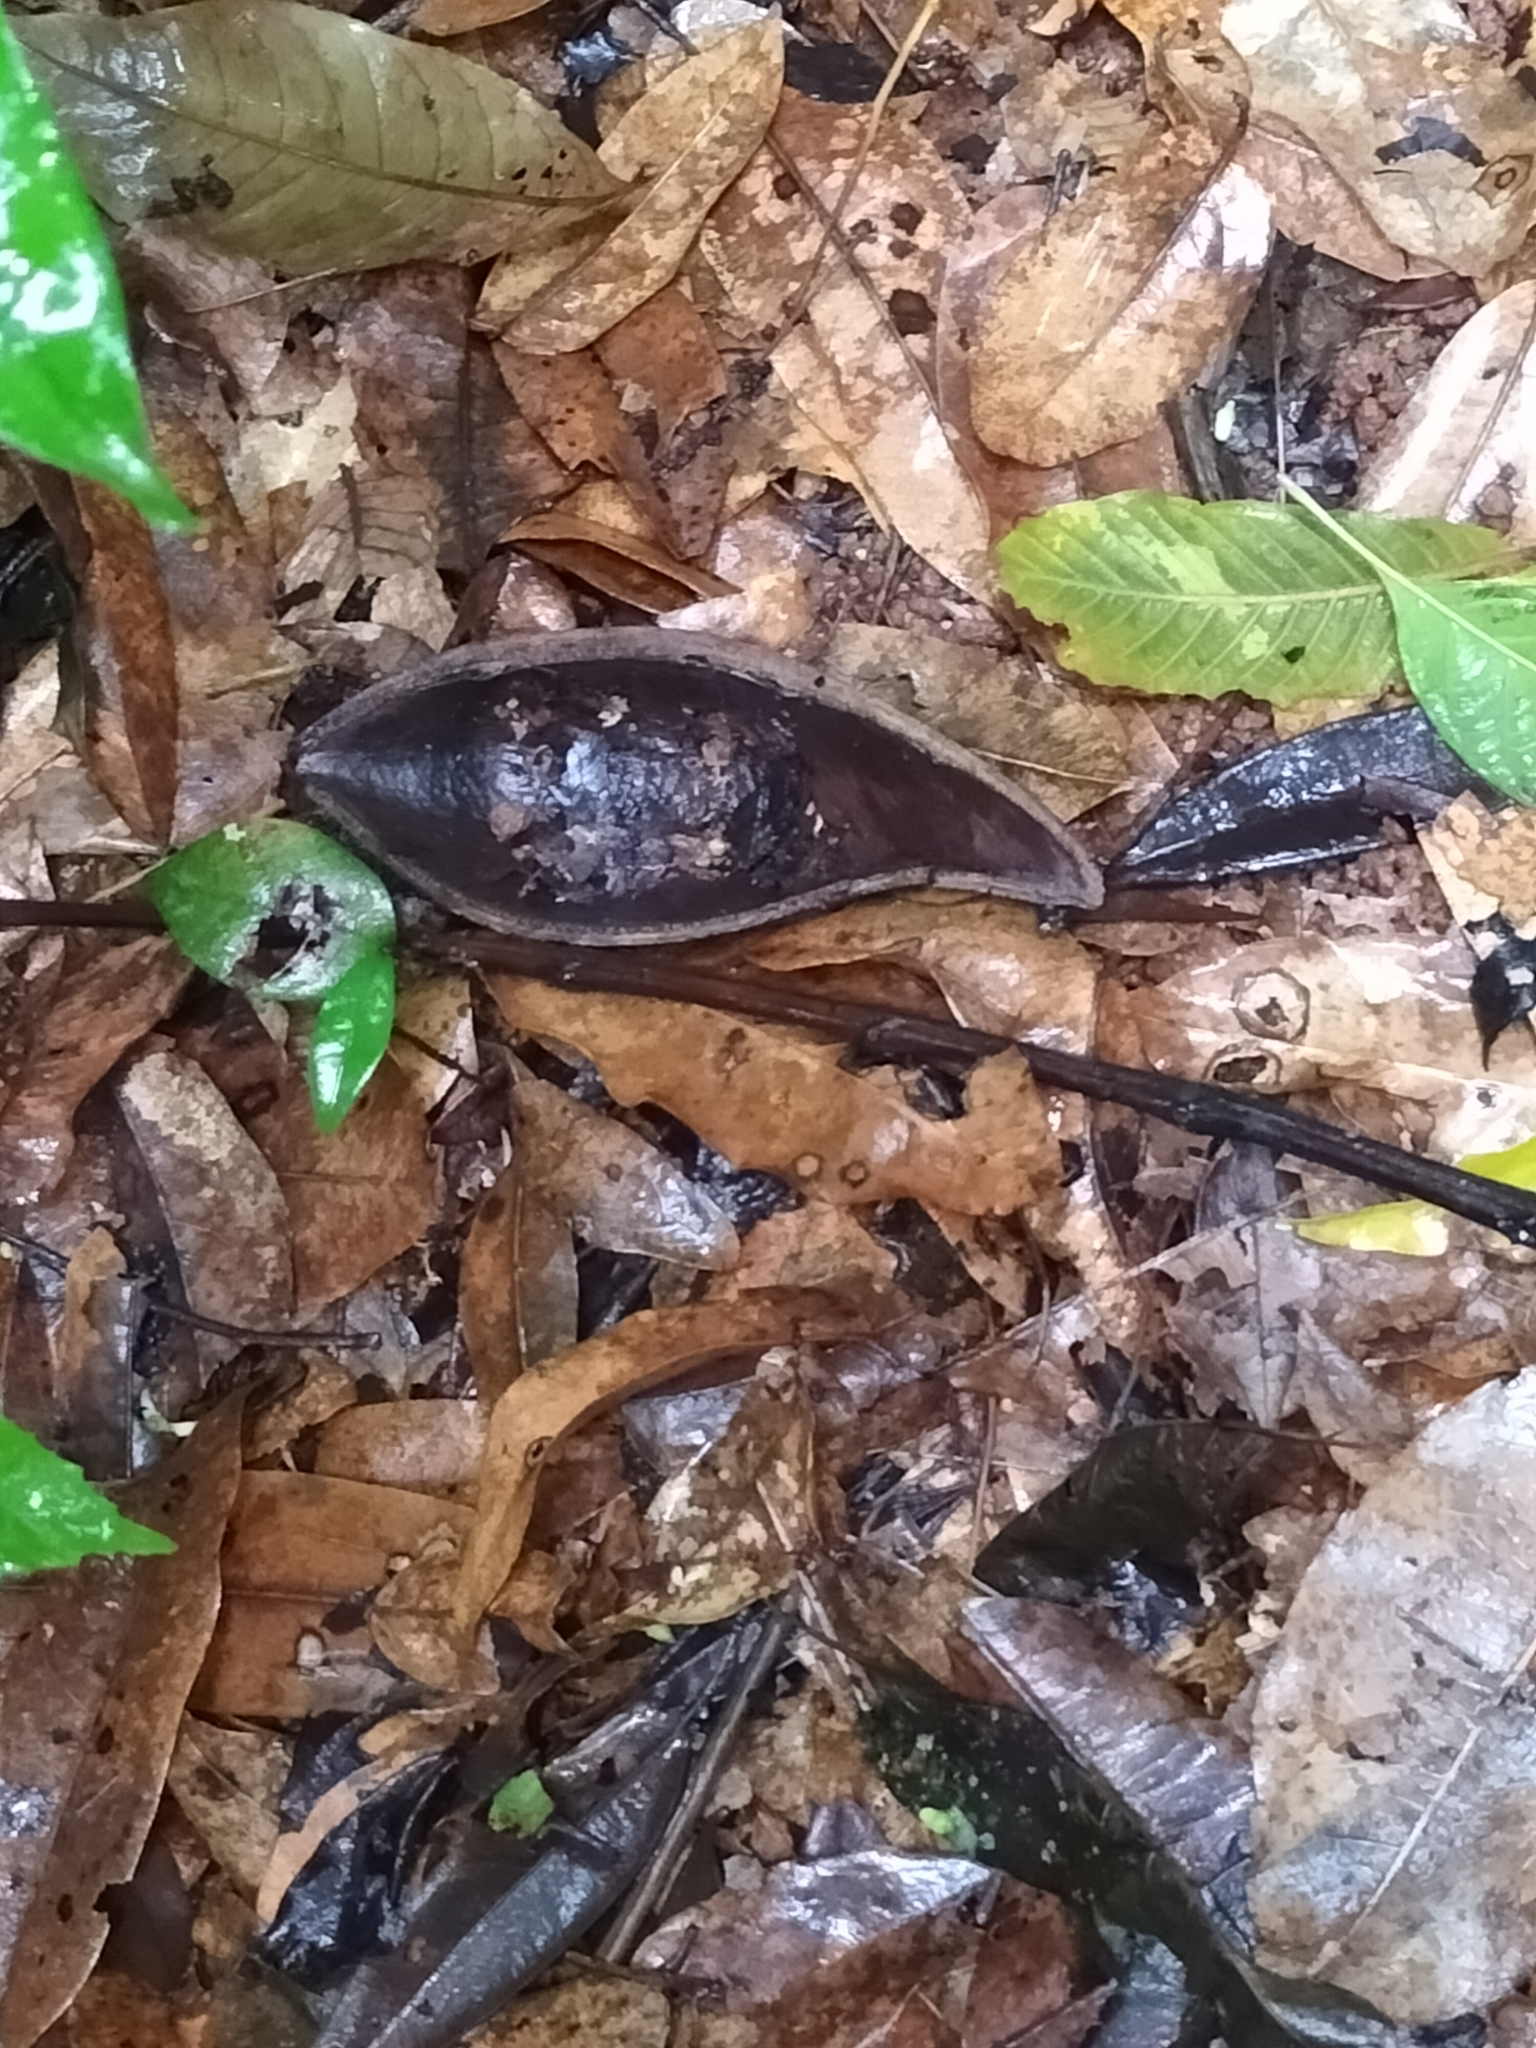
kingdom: Plantae
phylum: Tracheophyta
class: Magnoliopsida
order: Fabales
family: Fabaceae
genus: Castanospermum
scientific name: Castanospermum australe
